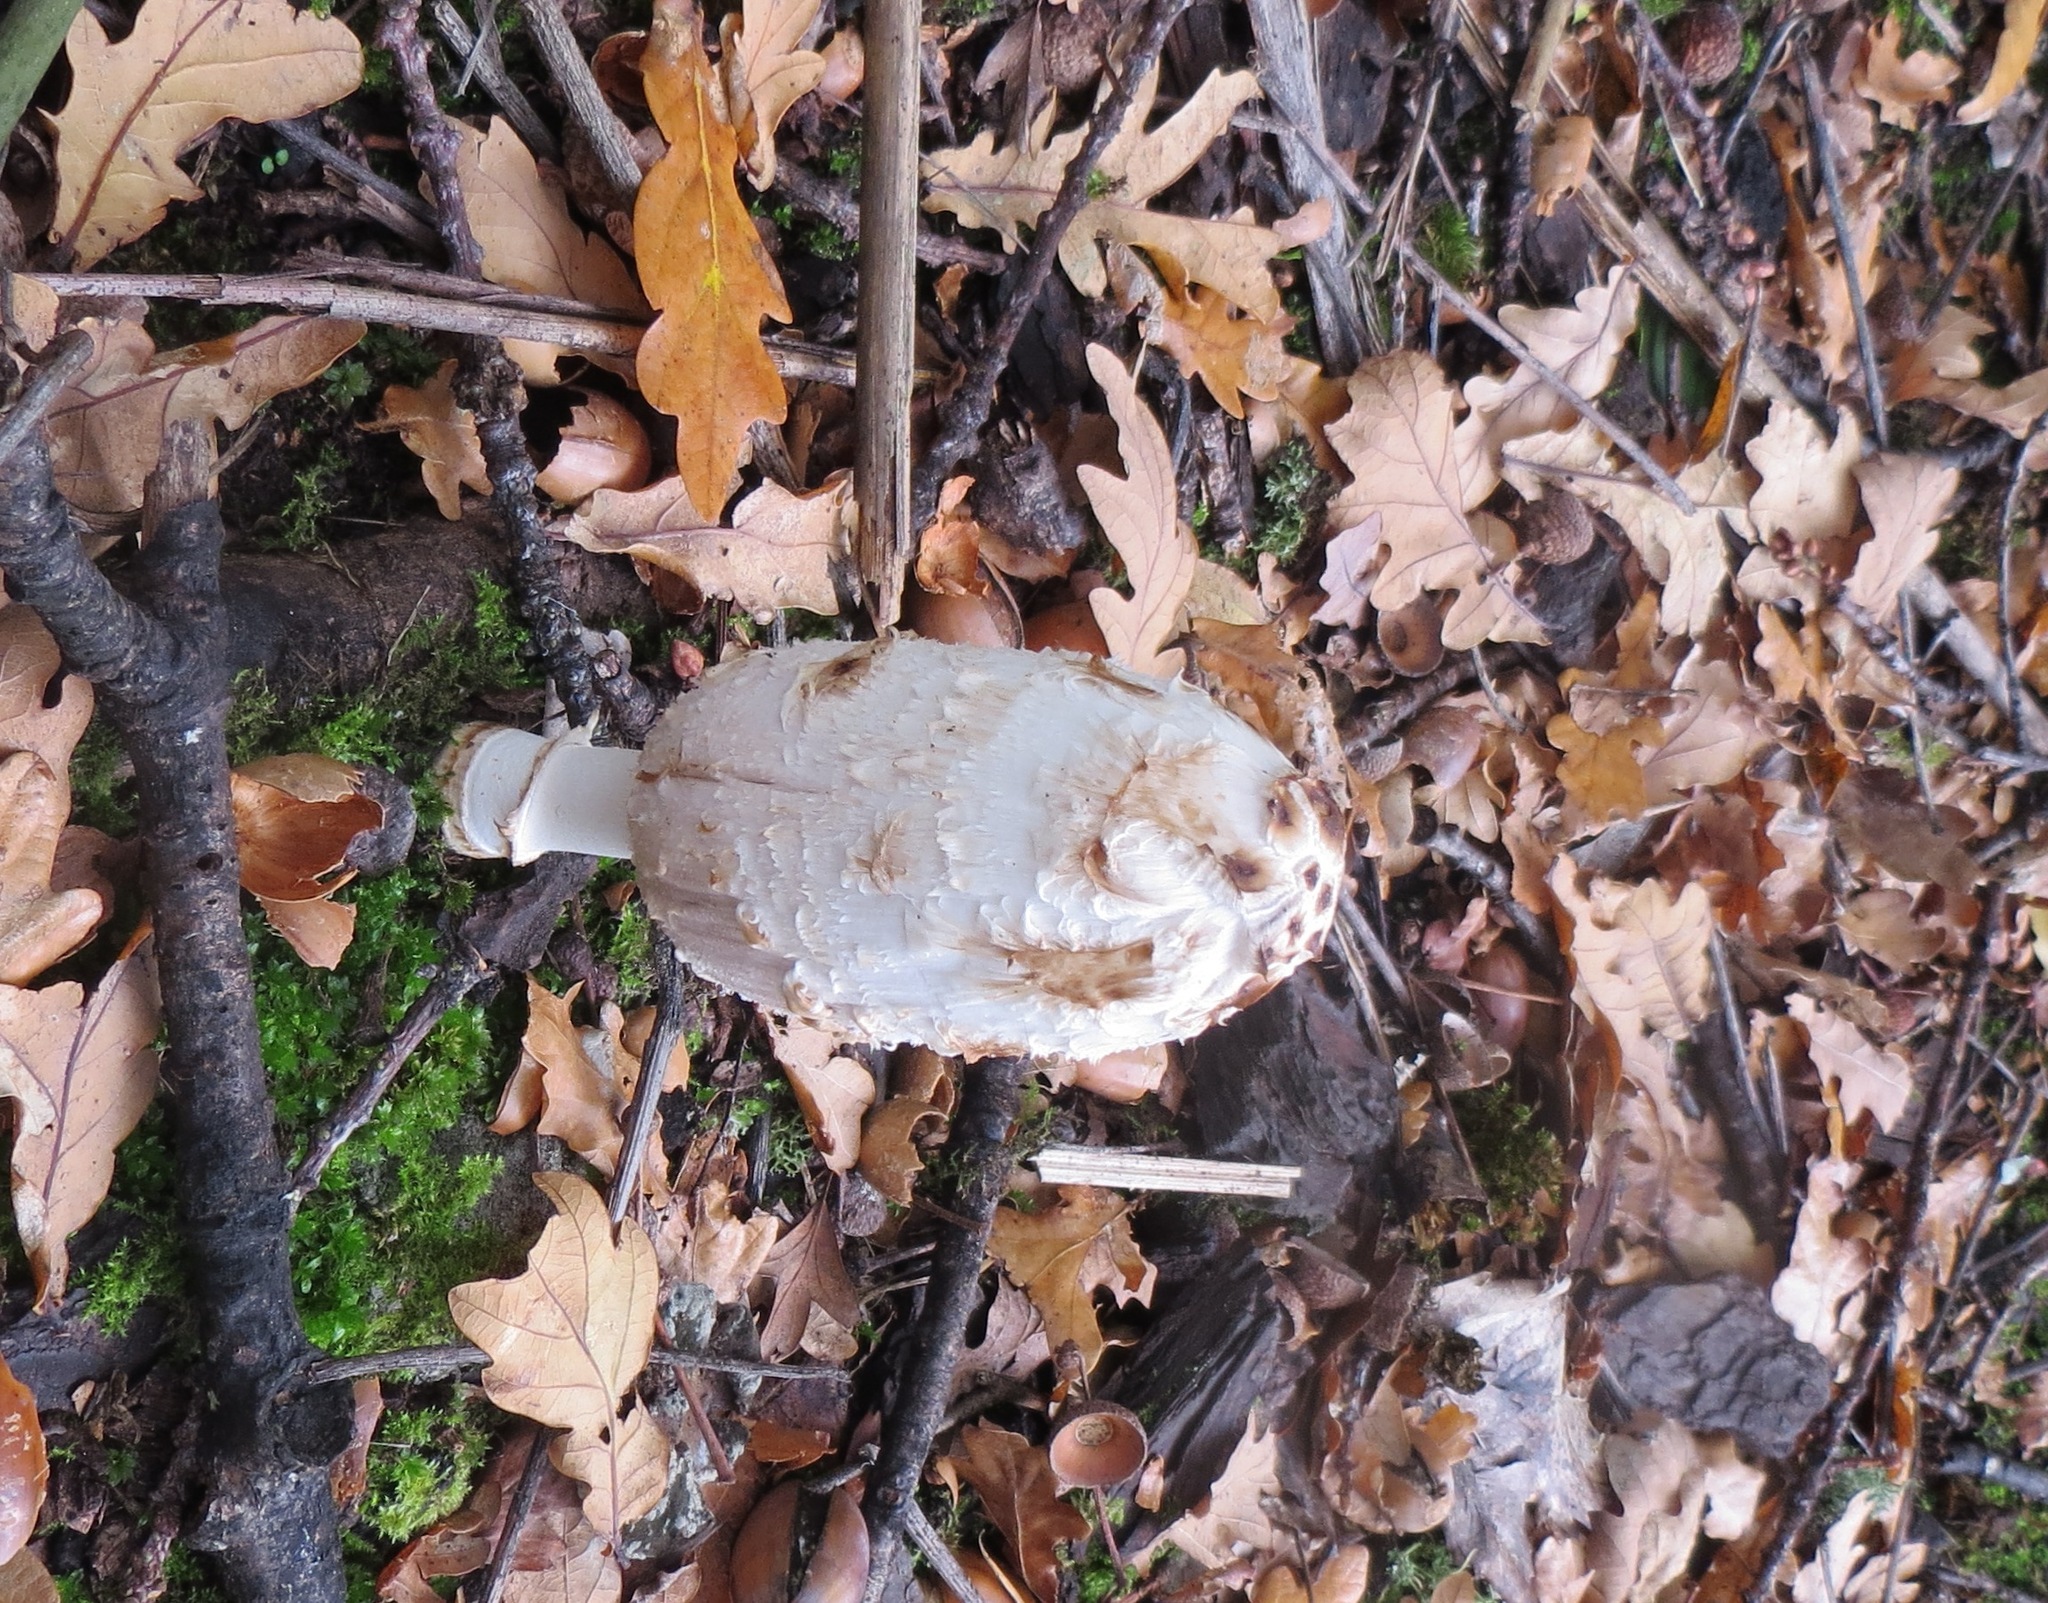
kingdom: Fungi
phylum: Basidiomycota
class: Agaricomycetes
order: Agaricales
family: Agaricaceae
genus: Coprinus
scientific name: Coprinus comatus
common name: Lawyer's wig
